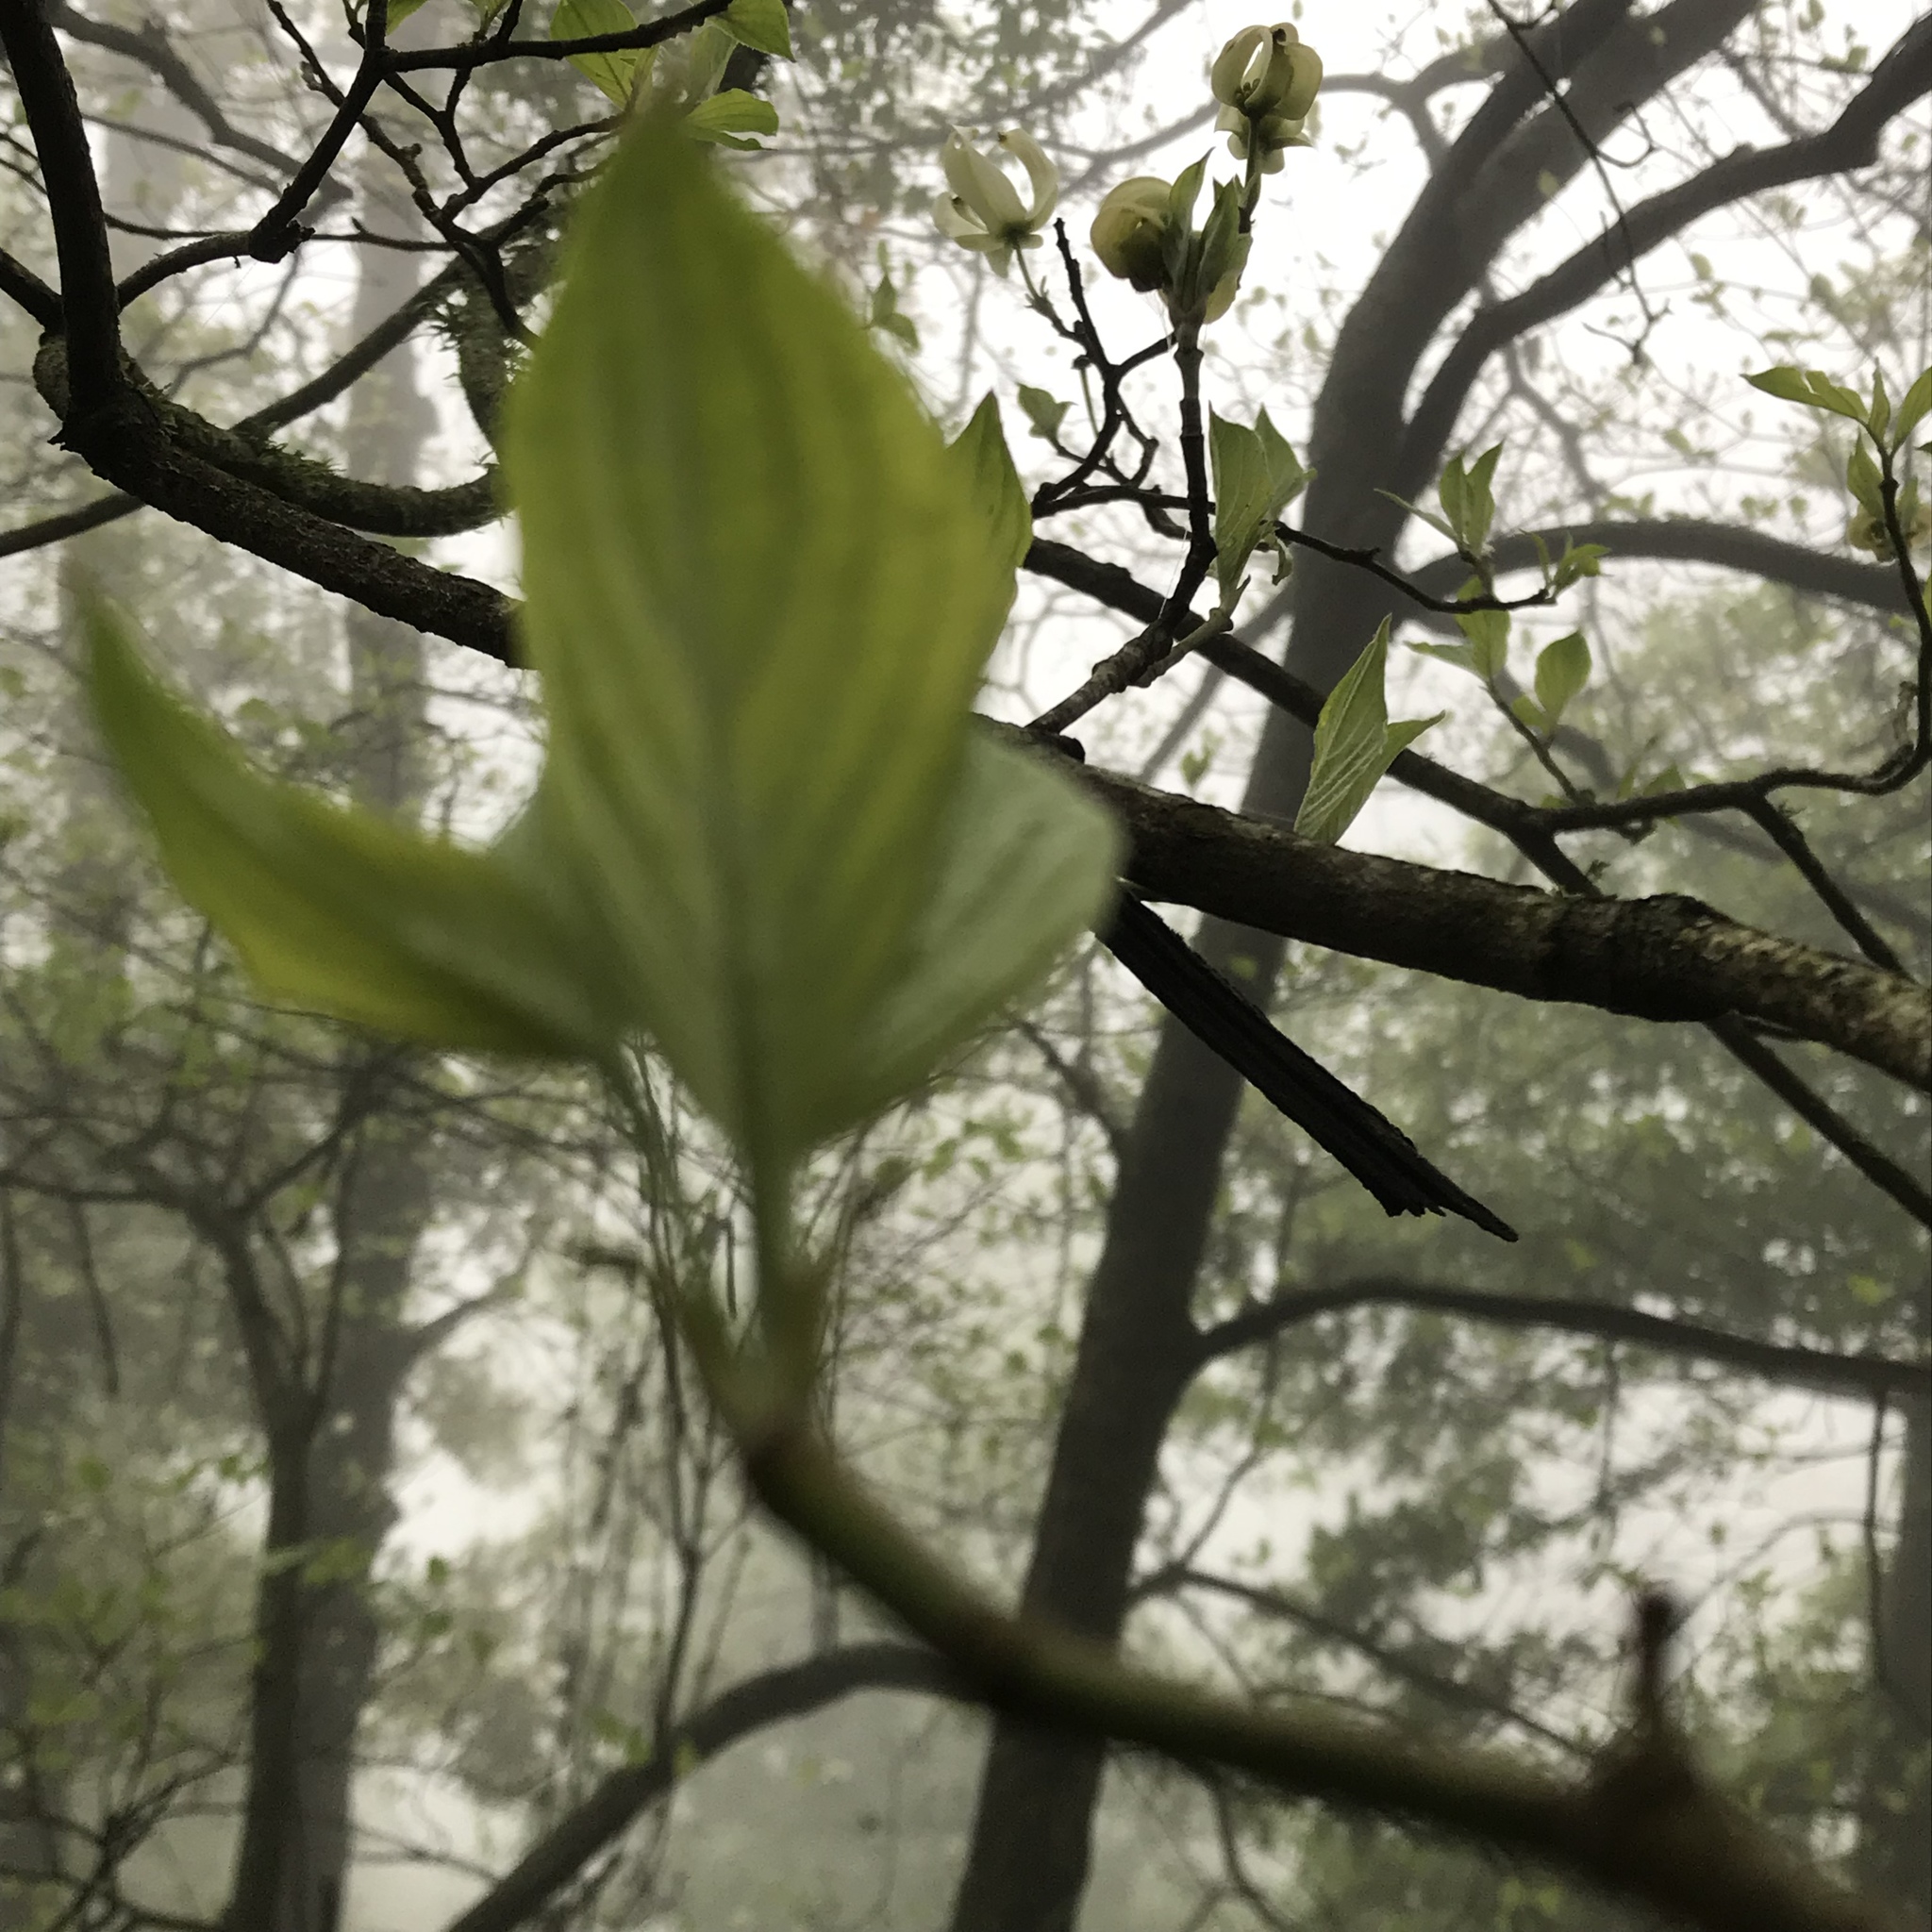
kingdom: Plantae
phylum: Tracheophyta
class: Magnoliopsida
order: Cornales
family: Cornaceae
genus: Cornus
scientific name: Cornus florida
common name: Flowering dogwood
